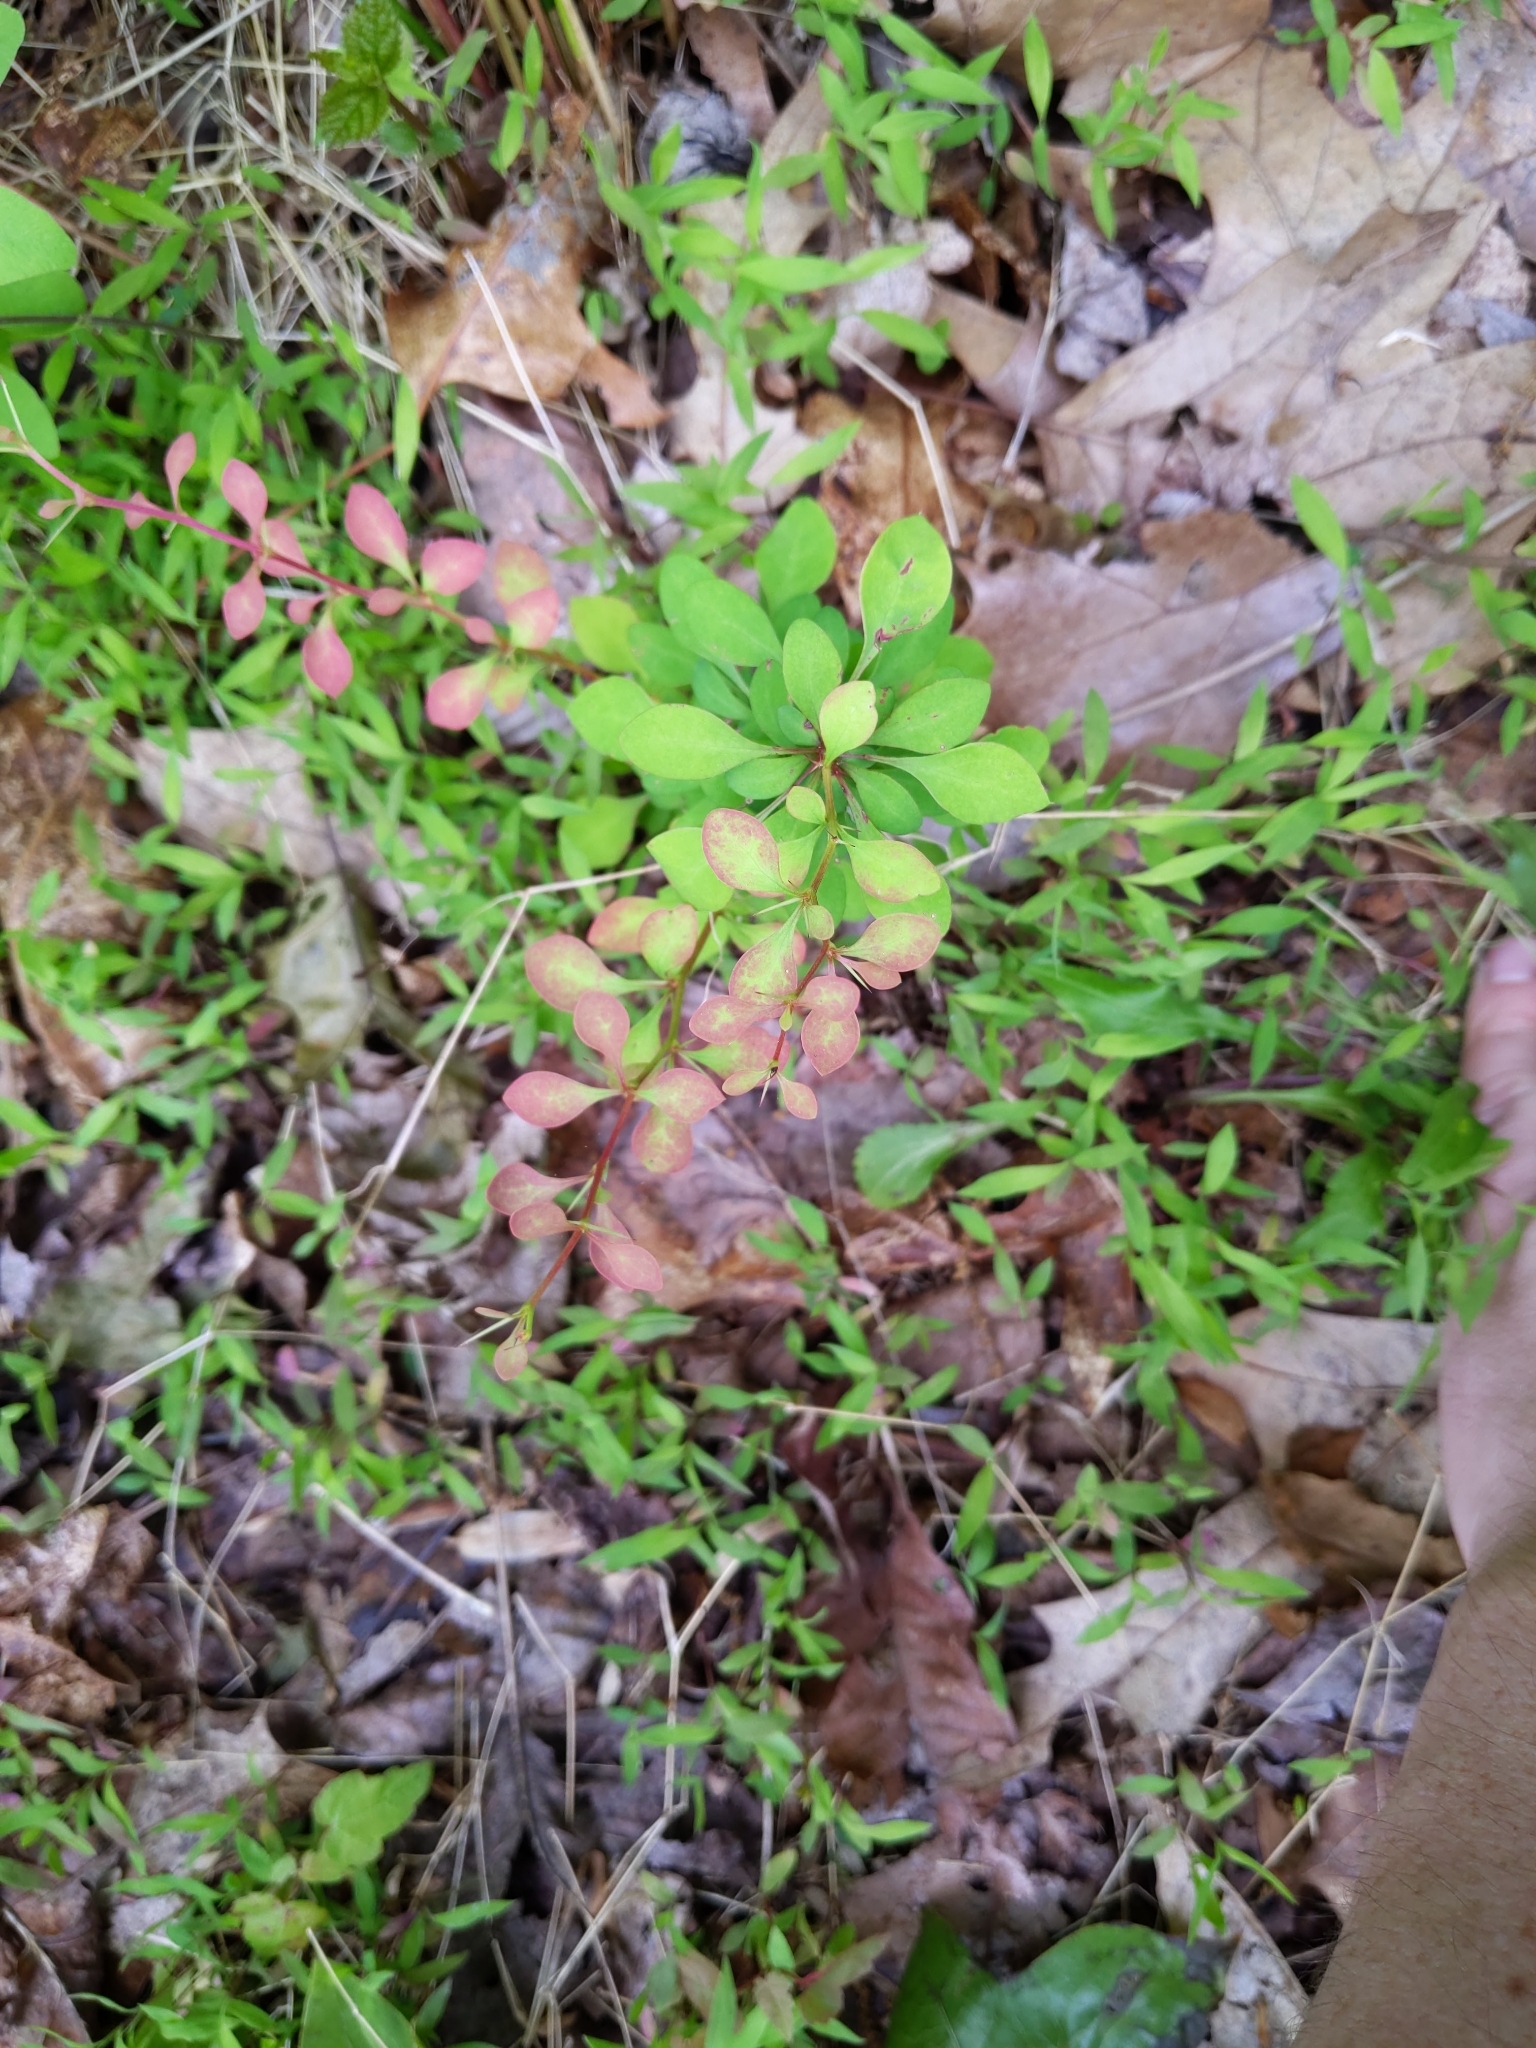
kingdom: Plantae
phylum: Tracheophyta
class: Magnoliopsida
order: Ranunculales
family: Berberidaceae
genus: Berberis
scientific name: Berberis thunbergii
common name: Japanese barberry
